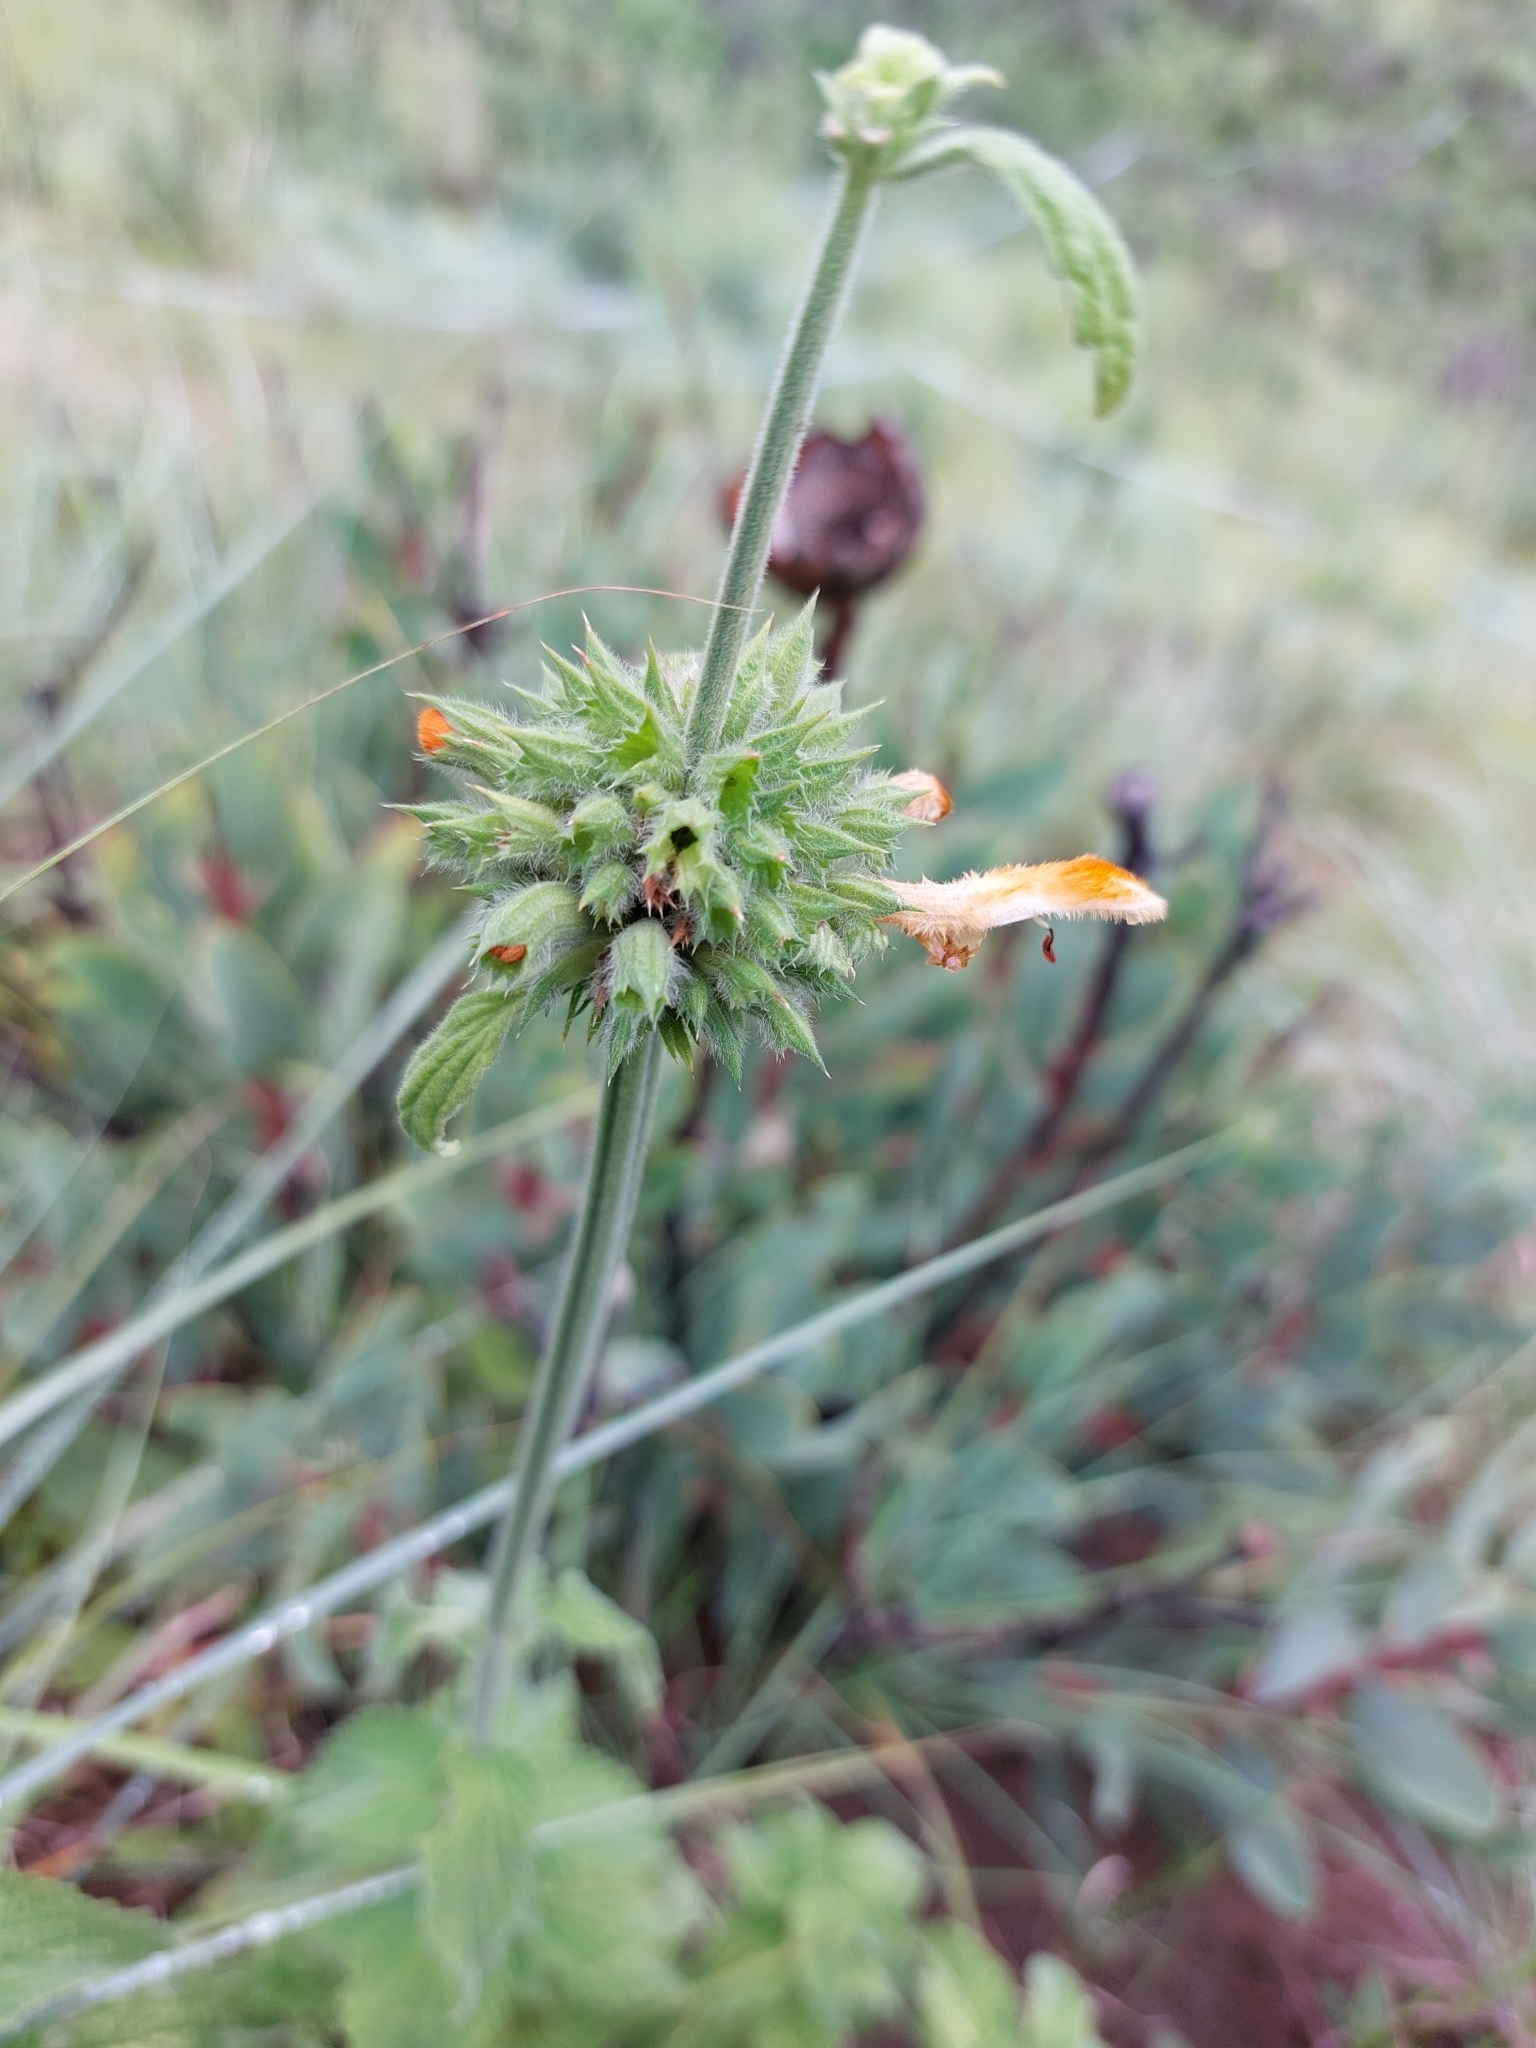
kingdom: Plantae
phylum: Tracheophyta
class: Magnoliopsida
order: Lamiales
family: Lamiaceae
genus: Leonotis
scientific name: Leonotis ocymifolia
